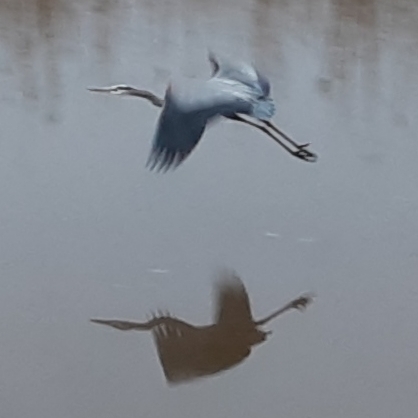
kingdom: Animalia
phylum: Chordata
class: Aves
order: Pelecaniformes
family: Ardeidae
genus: Ardea
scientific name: Ardea herodias
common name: Great blue heron
